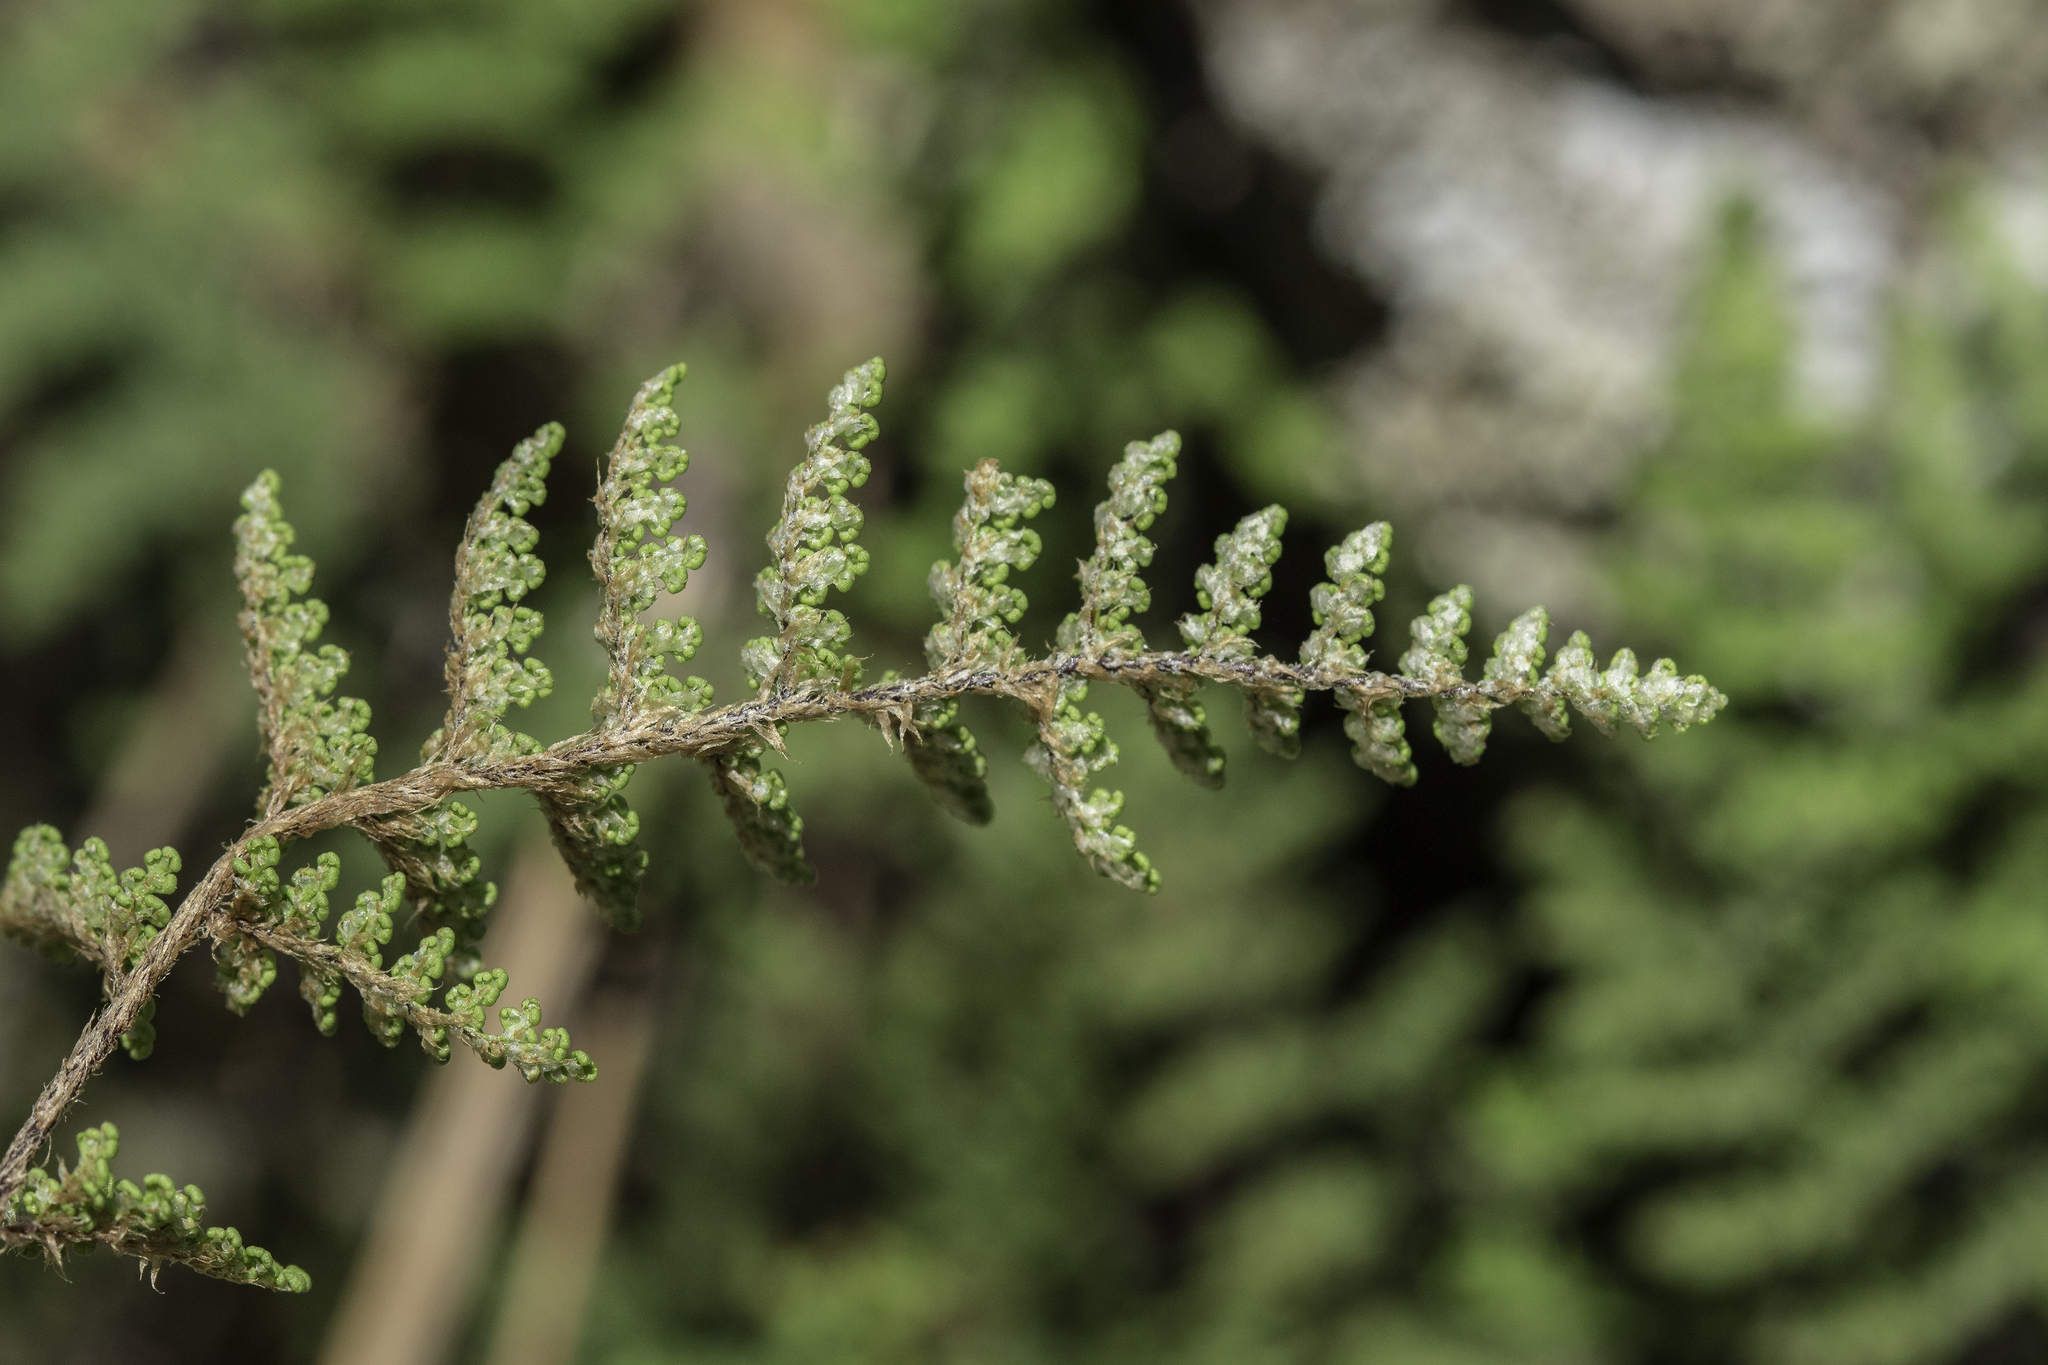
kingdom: Plantae
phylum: Tracheophyta
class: Polypodiopsida
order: Polypodiales
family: Pteridaceae
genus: Myriopteris
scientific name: Myriopteris fendleri
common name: Fendler's lip fern
